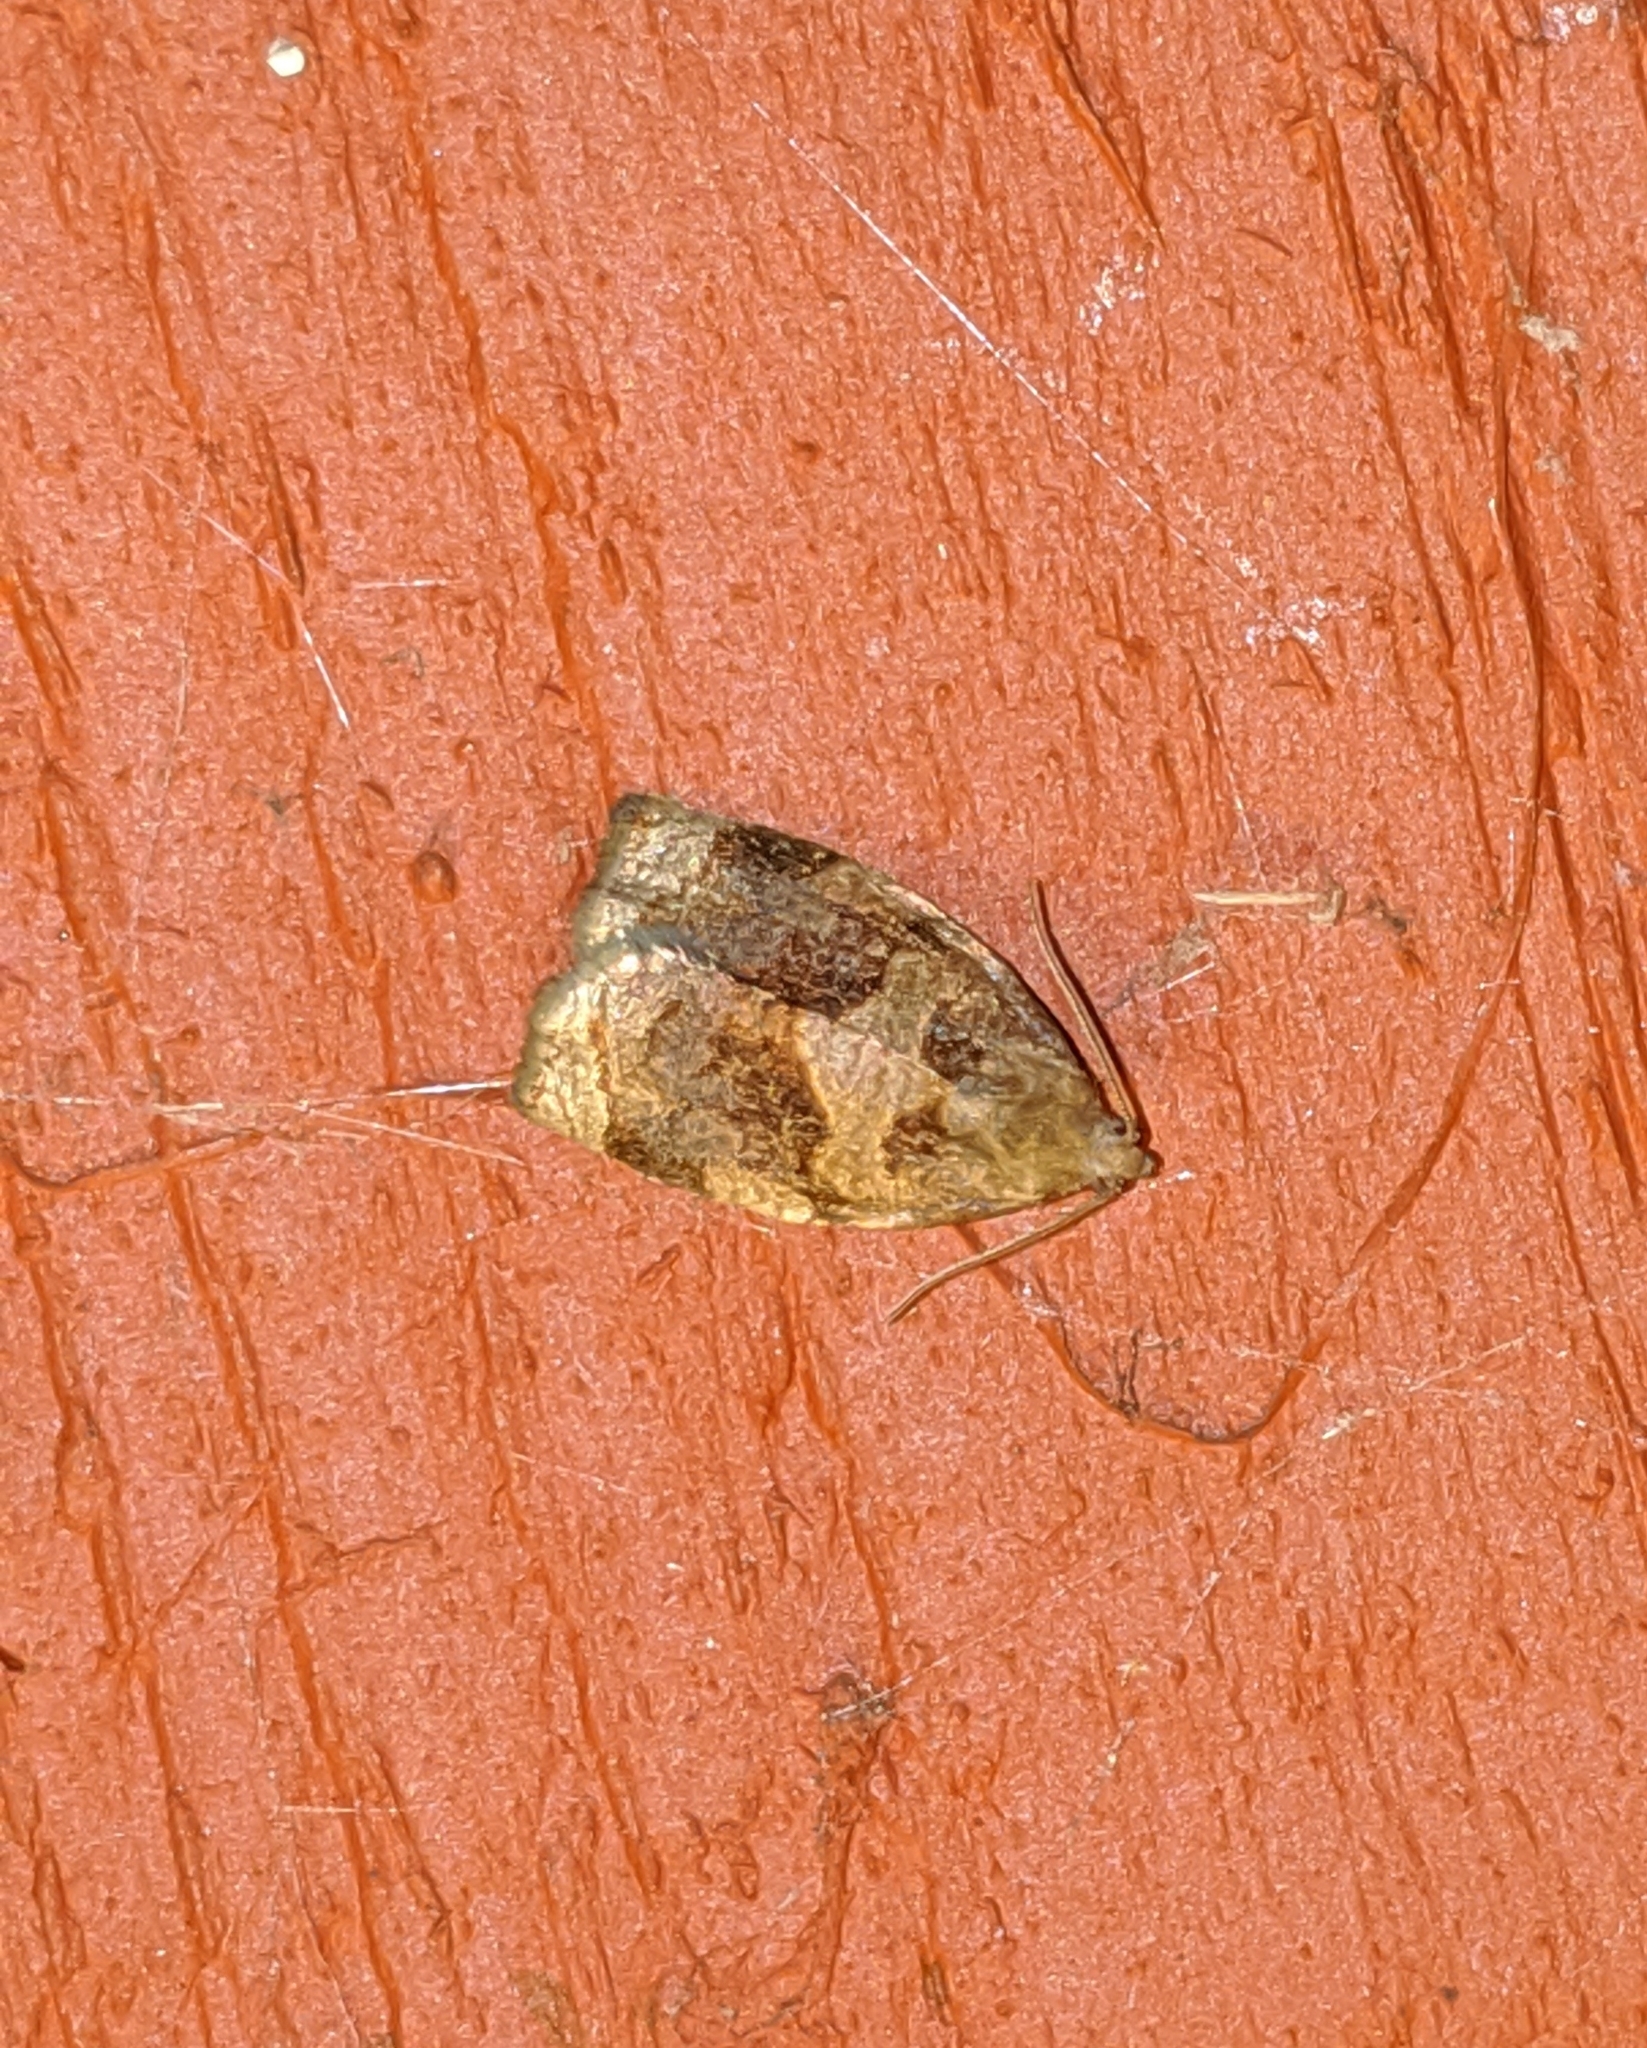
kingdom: Animalia
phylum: Arthropoda
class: Insecta
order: Lepidoptera
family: Tortricidae
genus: Archips
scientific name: Archips rosana
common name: Rose tortrix
